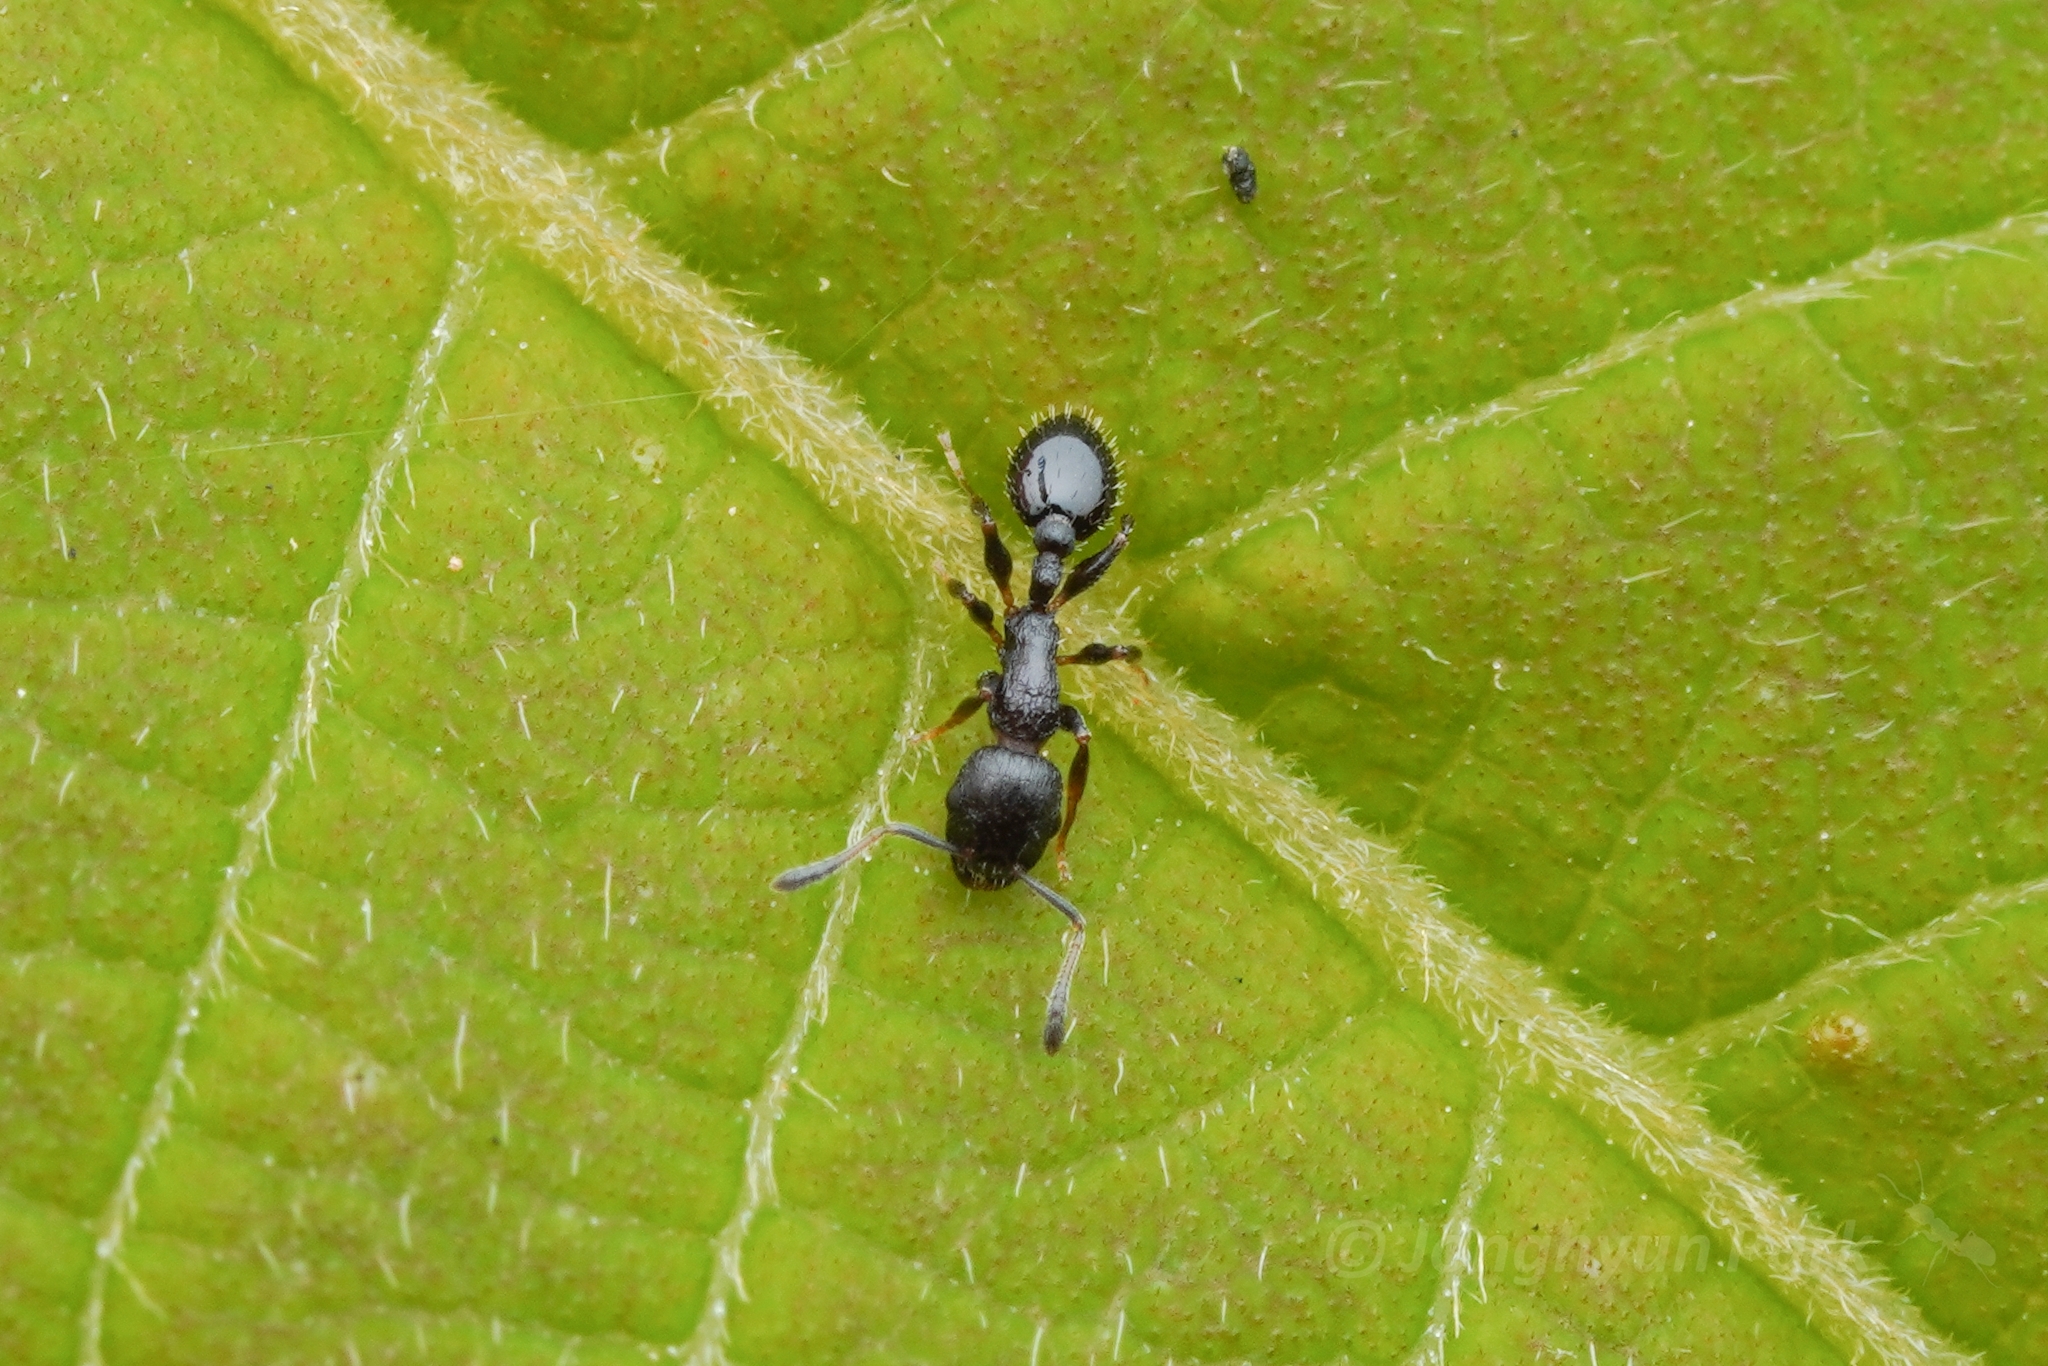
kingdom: Animalia
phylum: Arthropoda
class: Insecta
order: Hymenoptera
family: Formicidae
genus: Temnothorax
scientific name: Temnothorax
